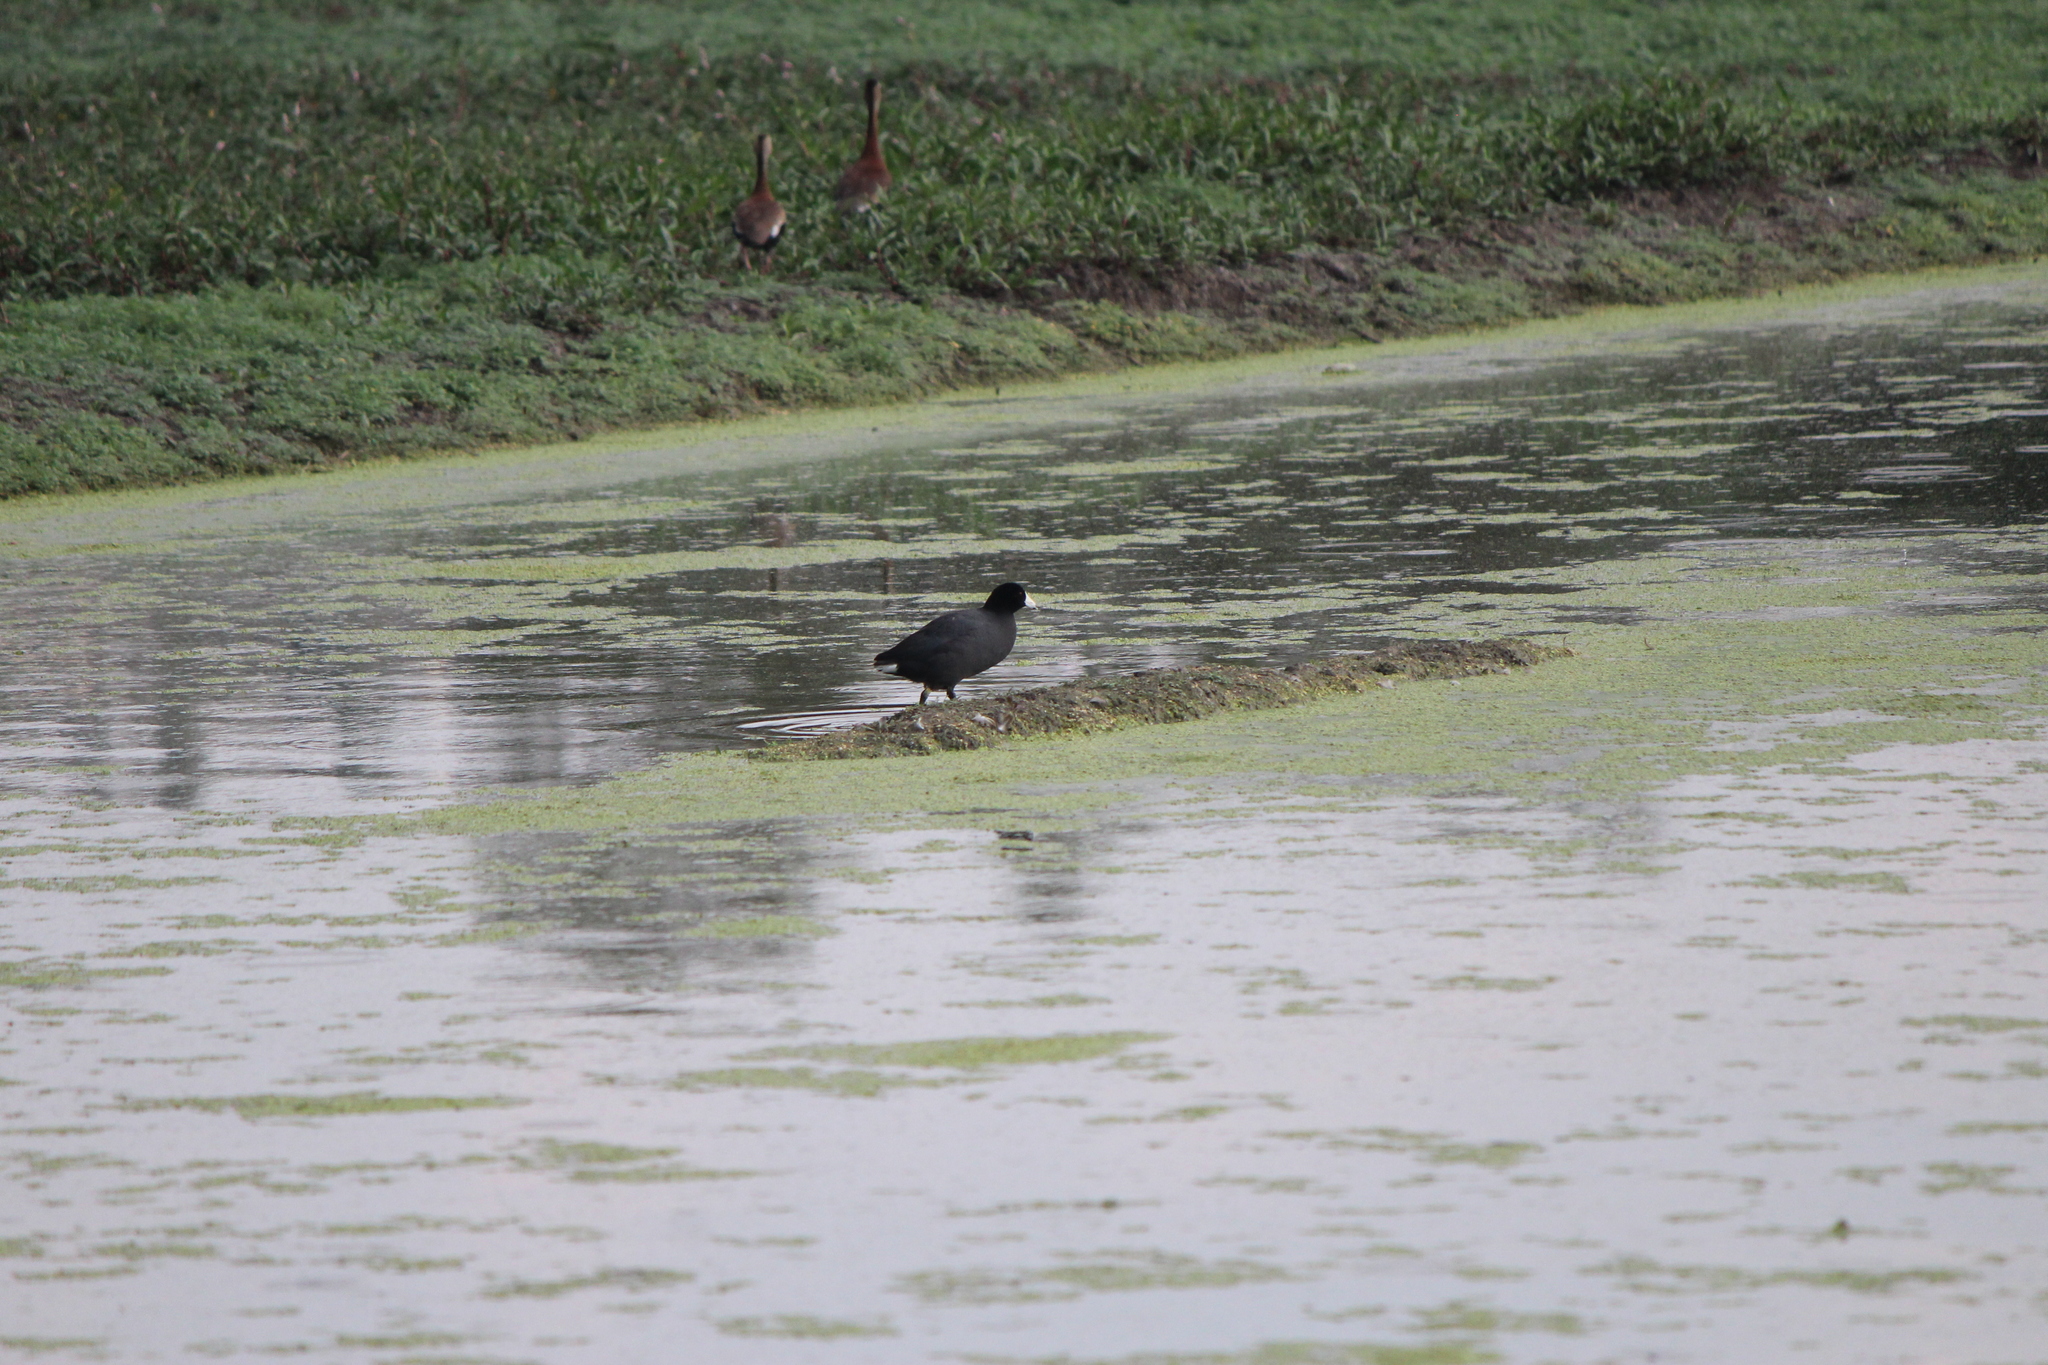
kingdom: Animalia
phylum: Chordata
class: Aves
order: Gruiformes
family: Rallidae
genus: Fulica
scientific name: Fulica americana
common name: American coot
